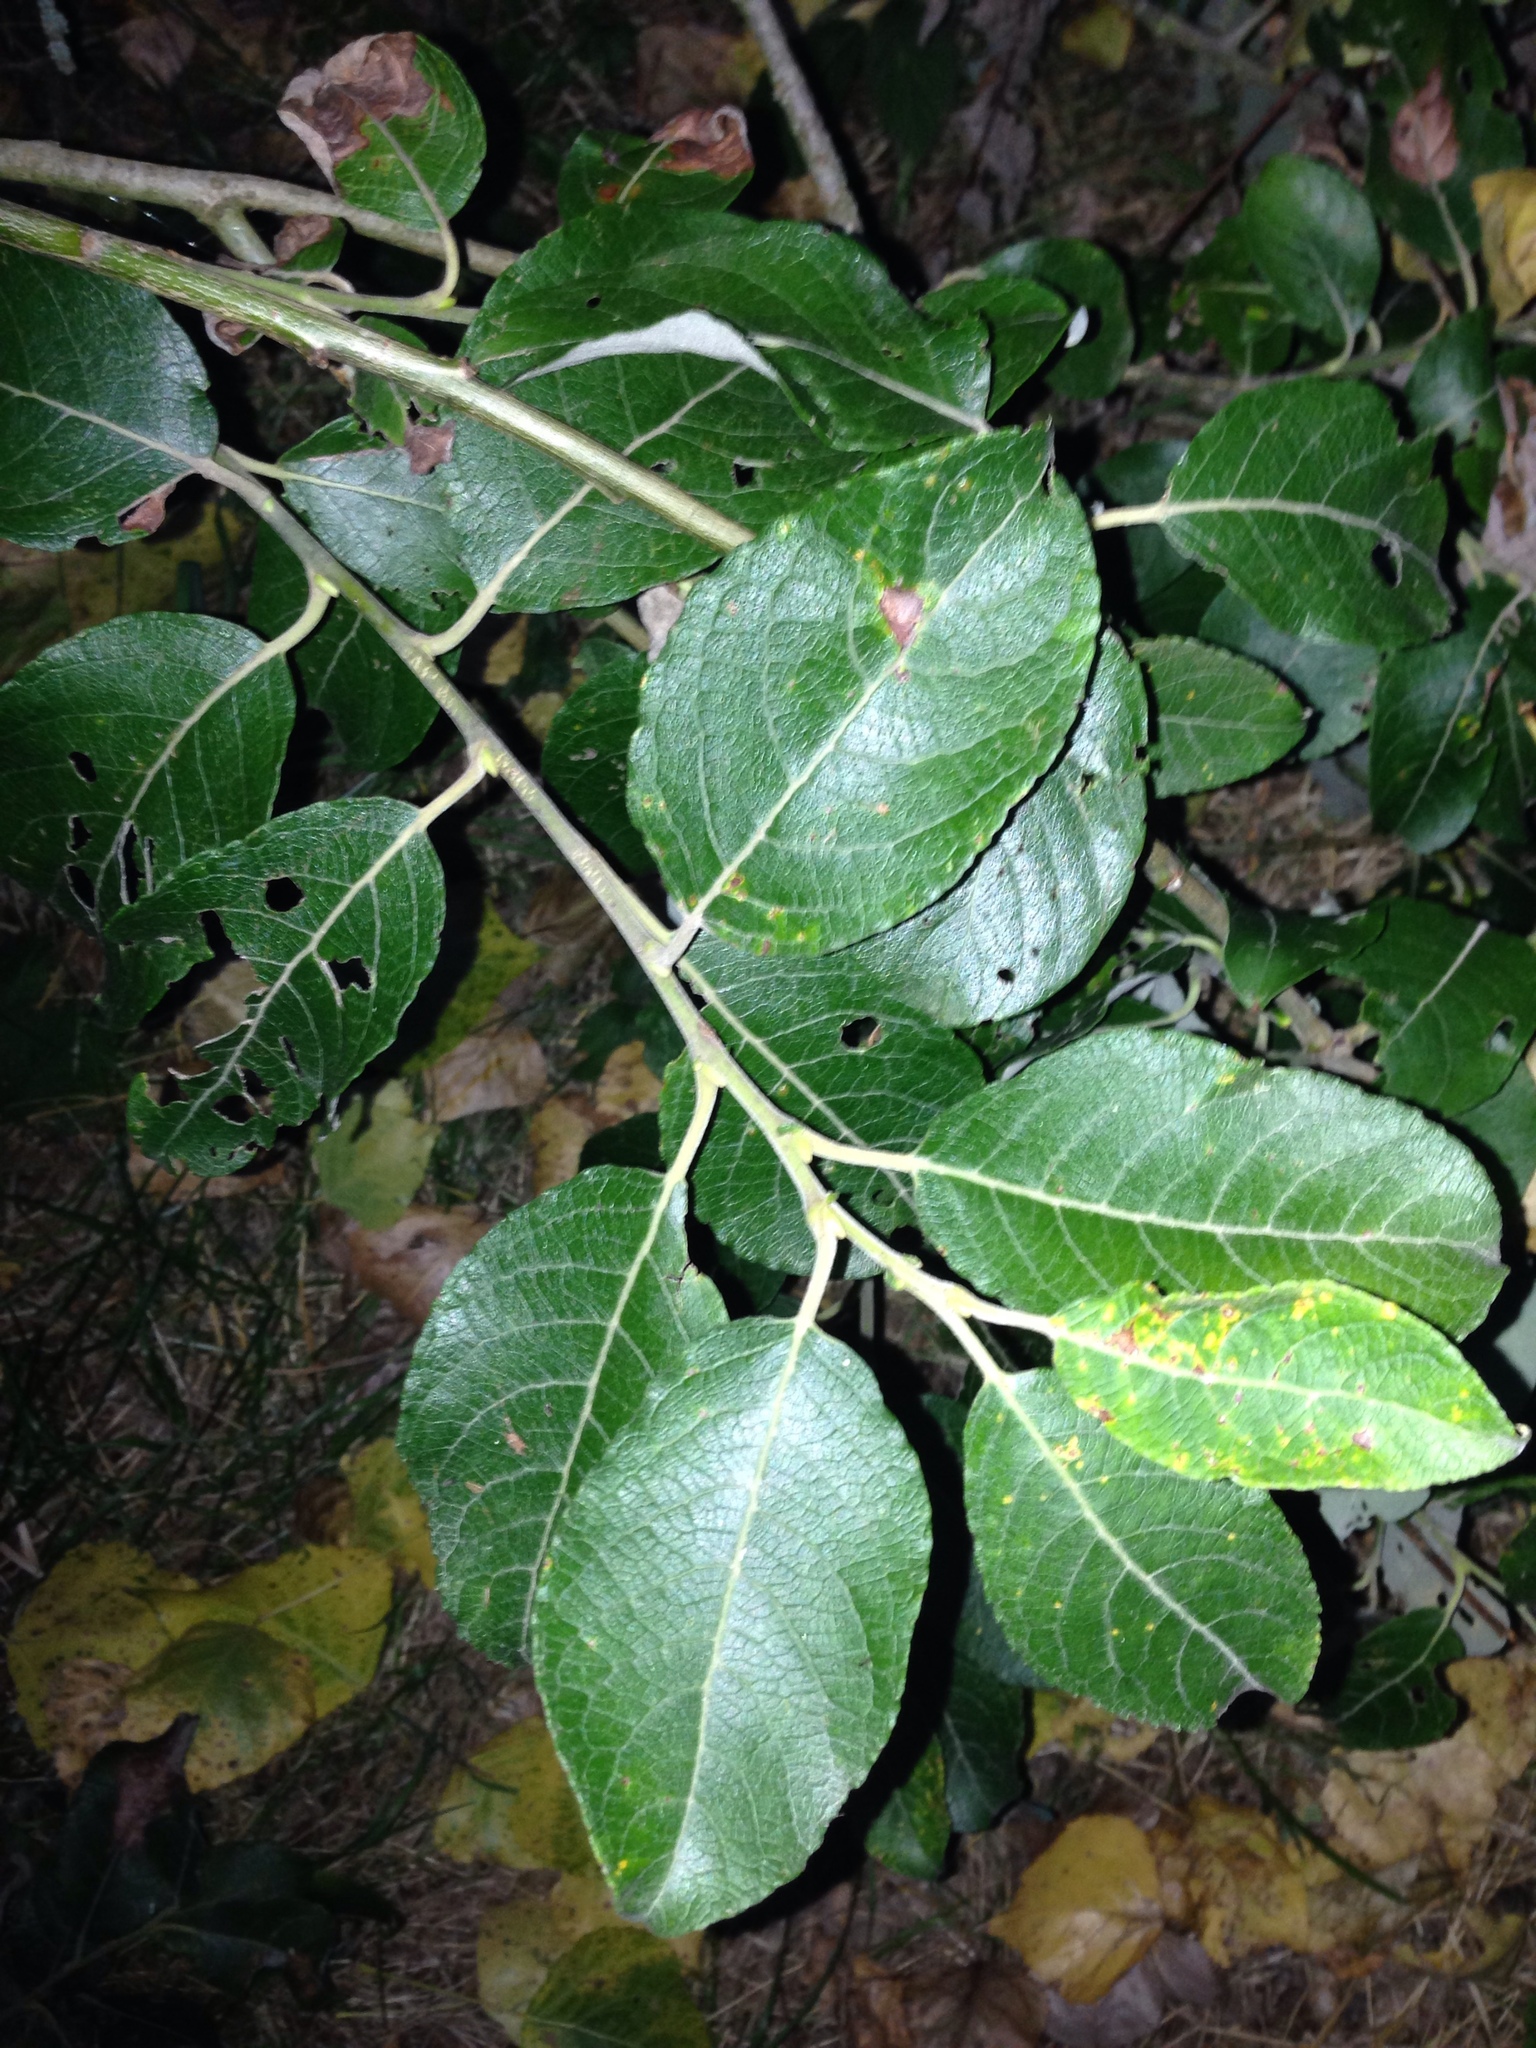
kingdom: Plantae
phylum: Tracheophyta
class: Magnoliopsida
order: Malpighiales
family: Salicaceae
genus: Salix
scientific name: Salix caprea
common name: Goat willow
